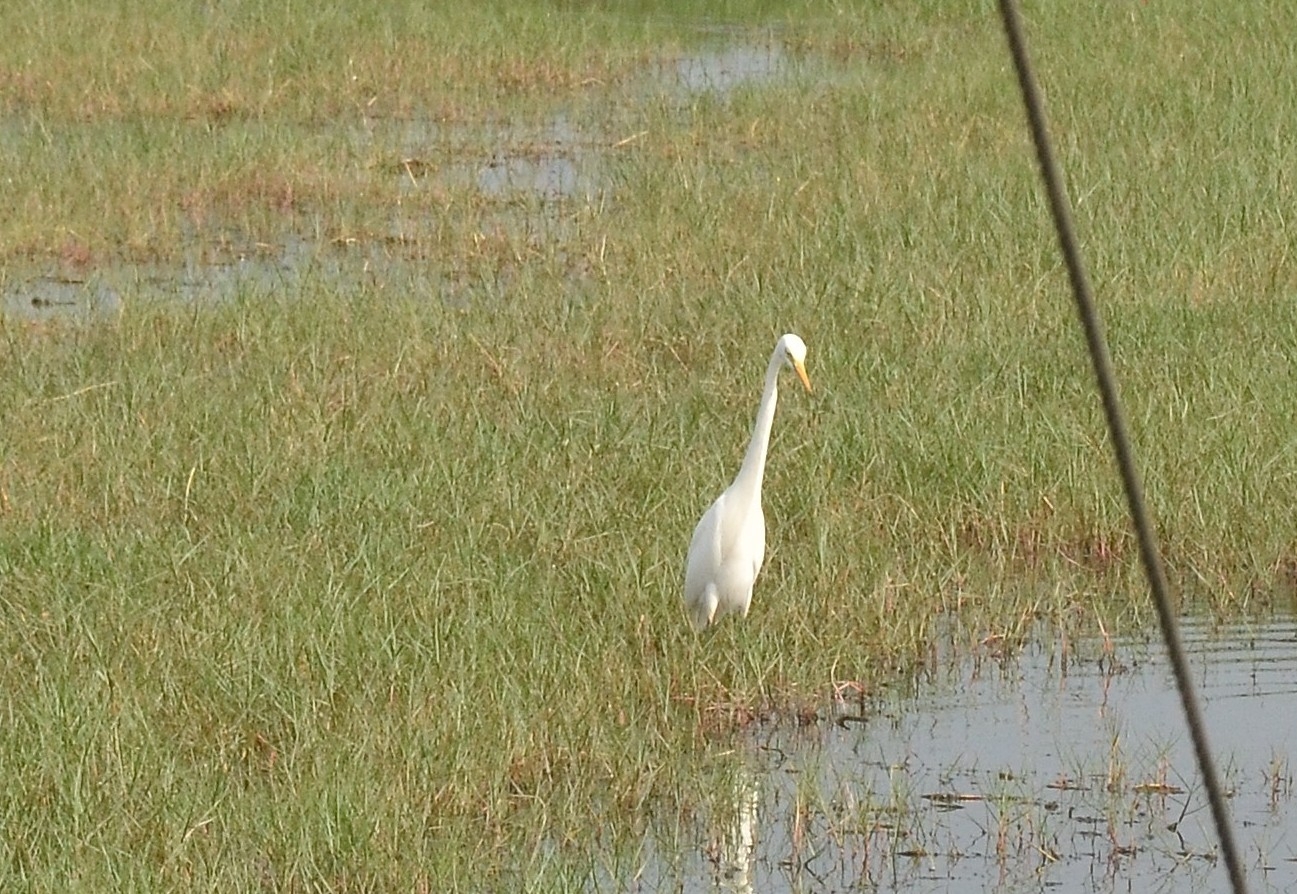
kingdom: Animalia
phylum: Chordata
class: Aves
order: Pelecaniformes
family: Ardeidae
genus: Egretta
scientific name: Egretta intermedia
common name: Intermediate egret
